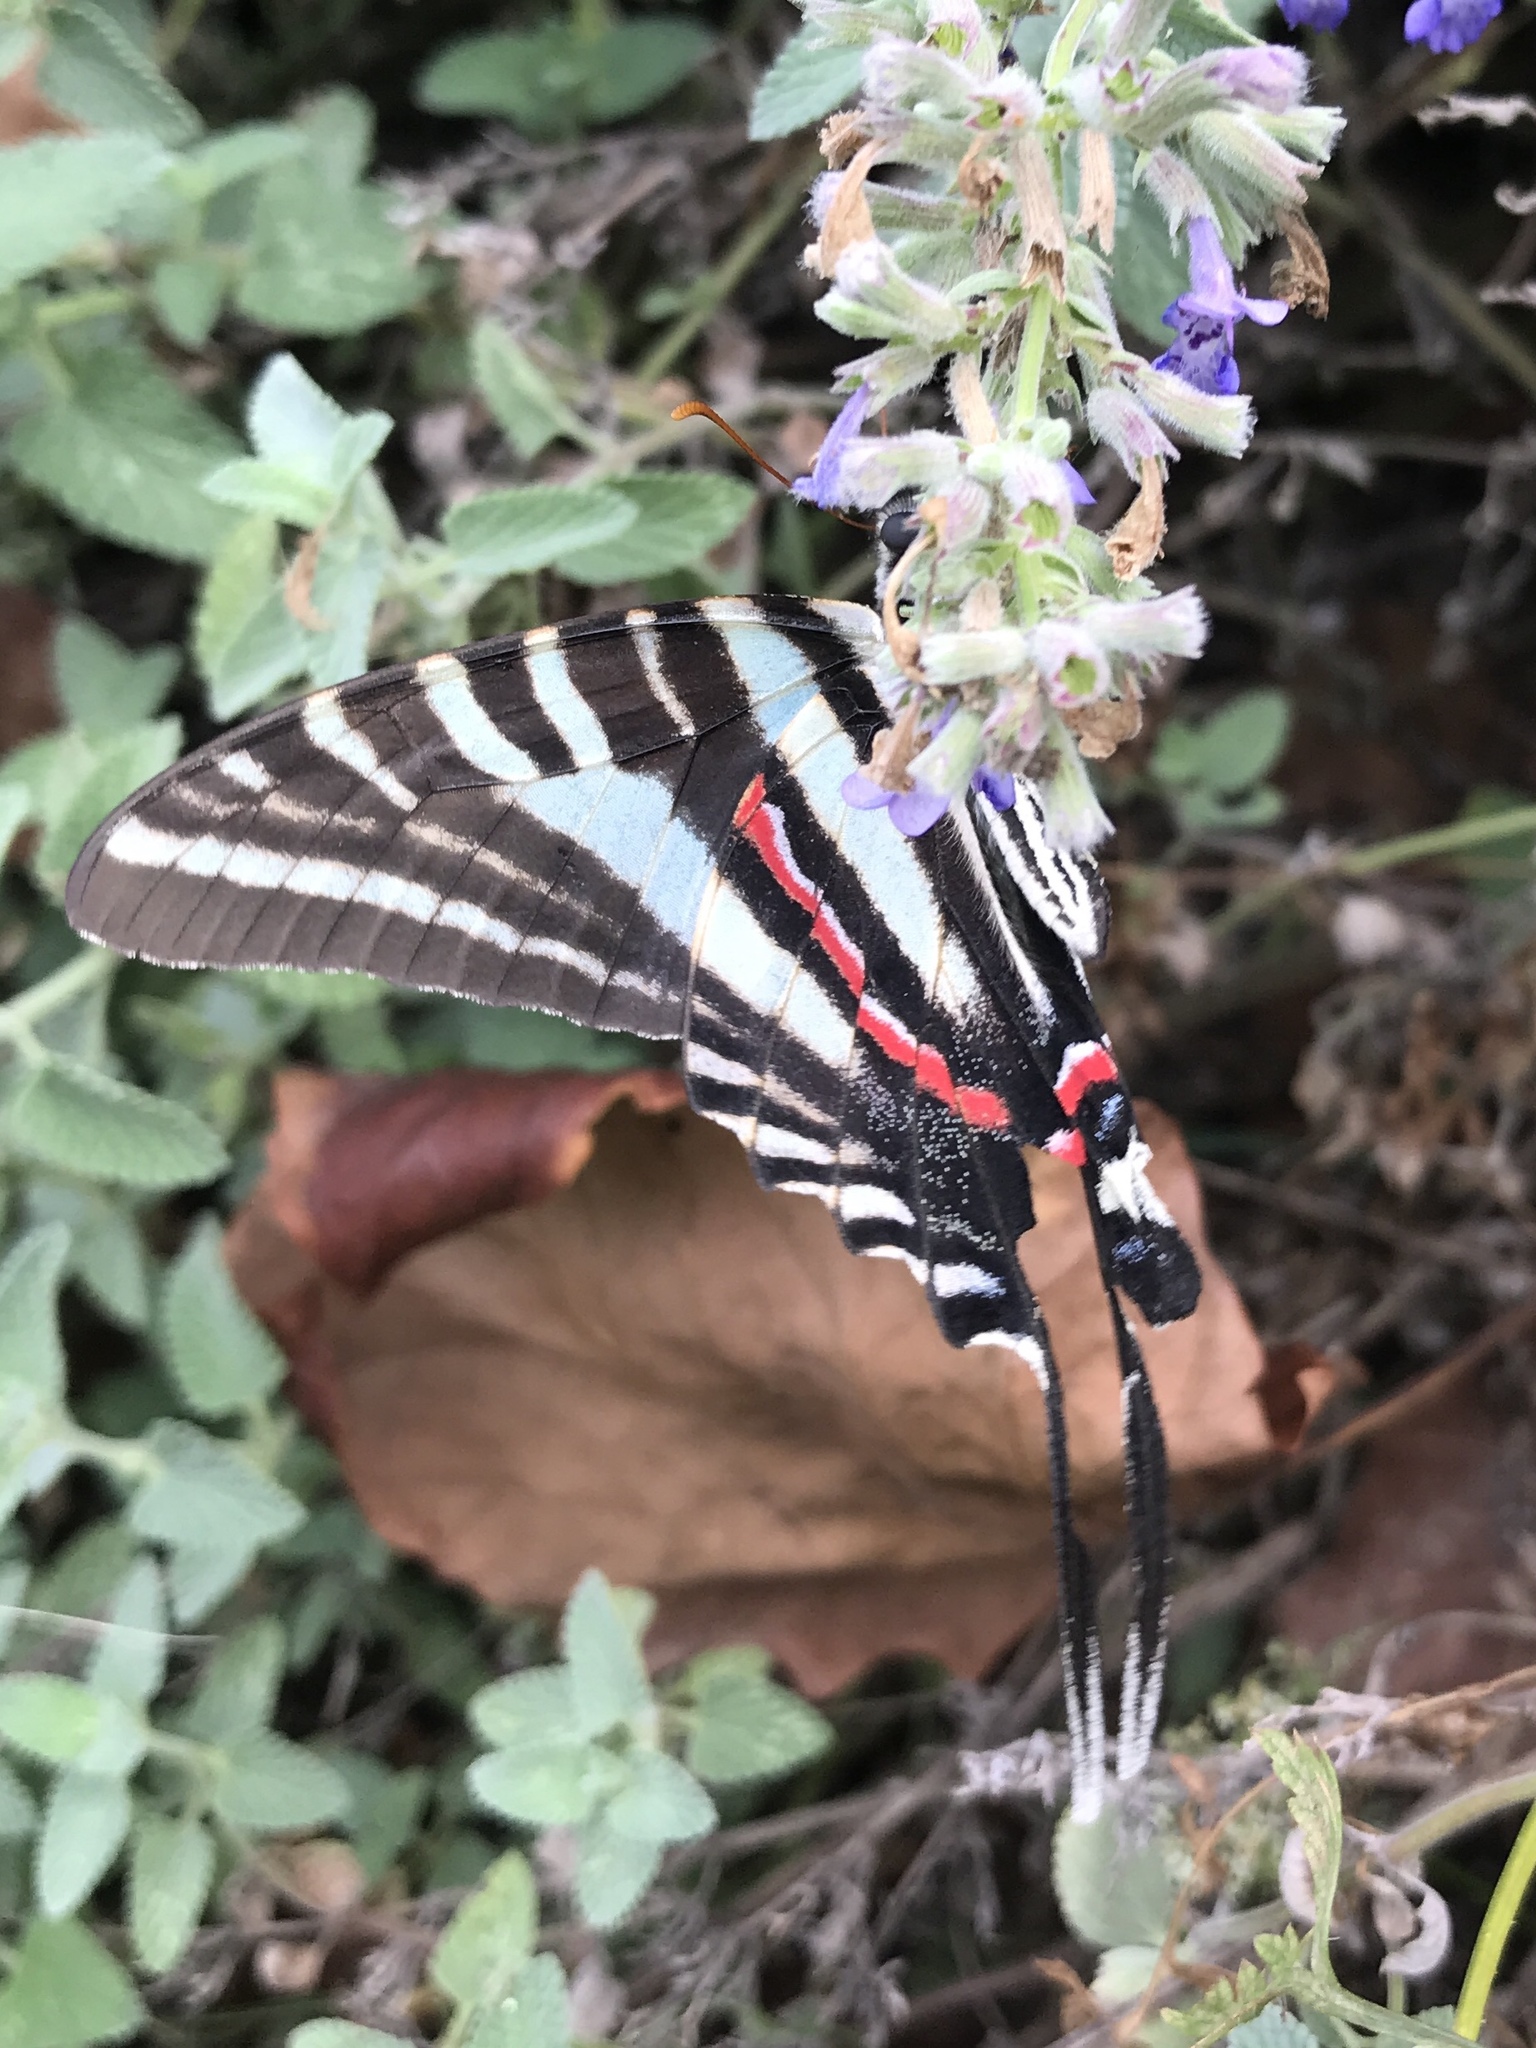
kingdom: Animalia
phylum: Arthropoda
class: Insecta
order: Lepidoptera
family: Papilionidae
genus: Protographium
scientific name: Protographium marcellus
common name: Zebra swallowtail
